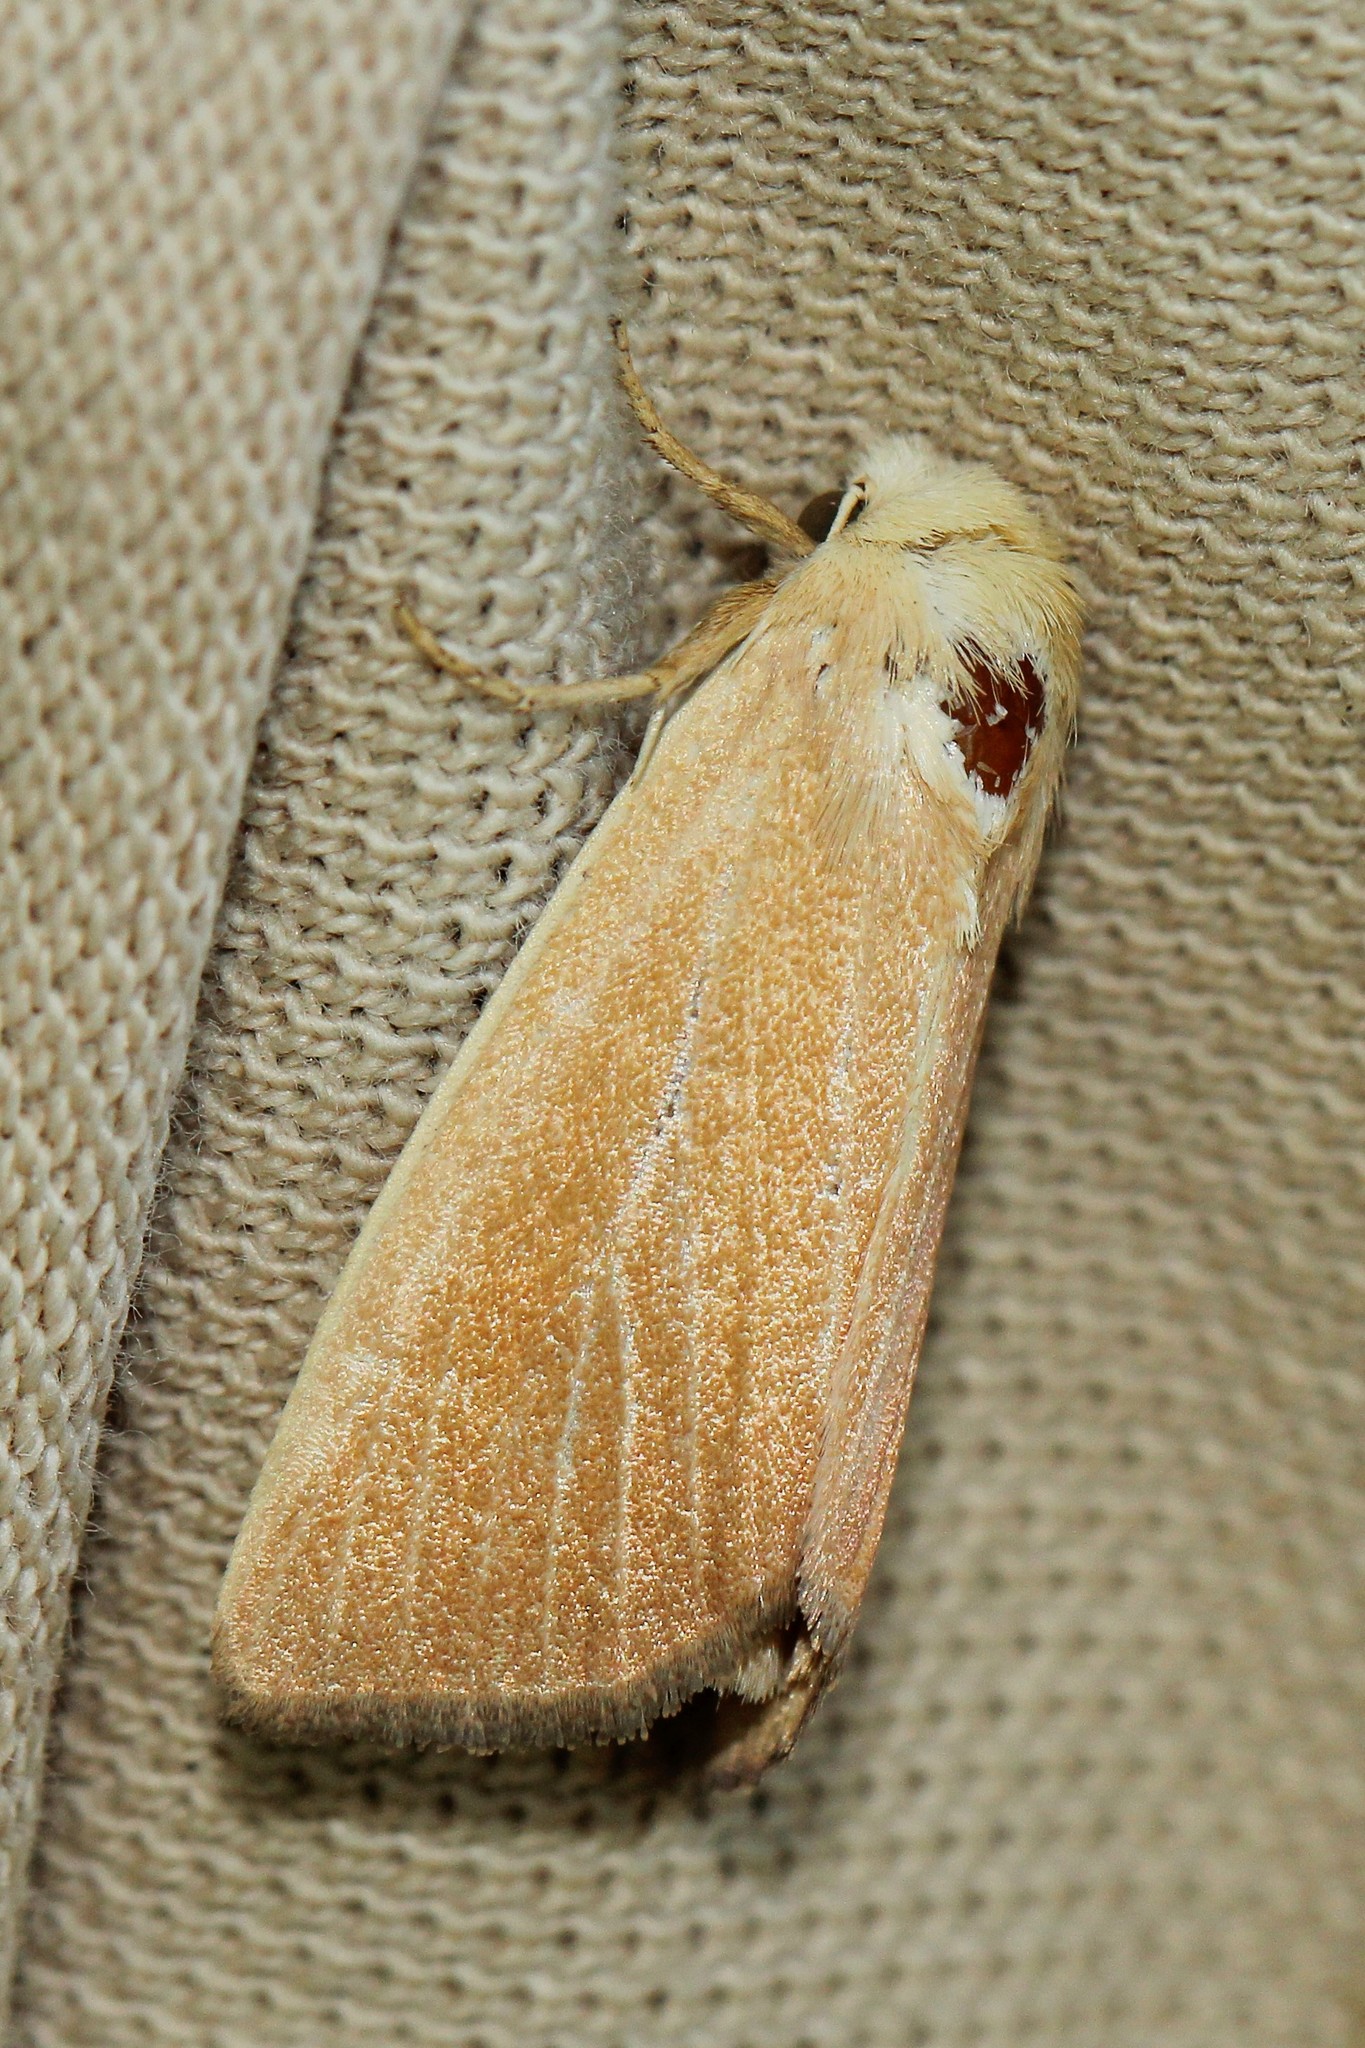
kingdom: Animalia
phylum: Arthropoda
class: Insecta
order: Lepidoptera
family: Noctuidae
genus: Arenostola
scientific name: Arenostola phragmitidis
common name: Fen wainscot
